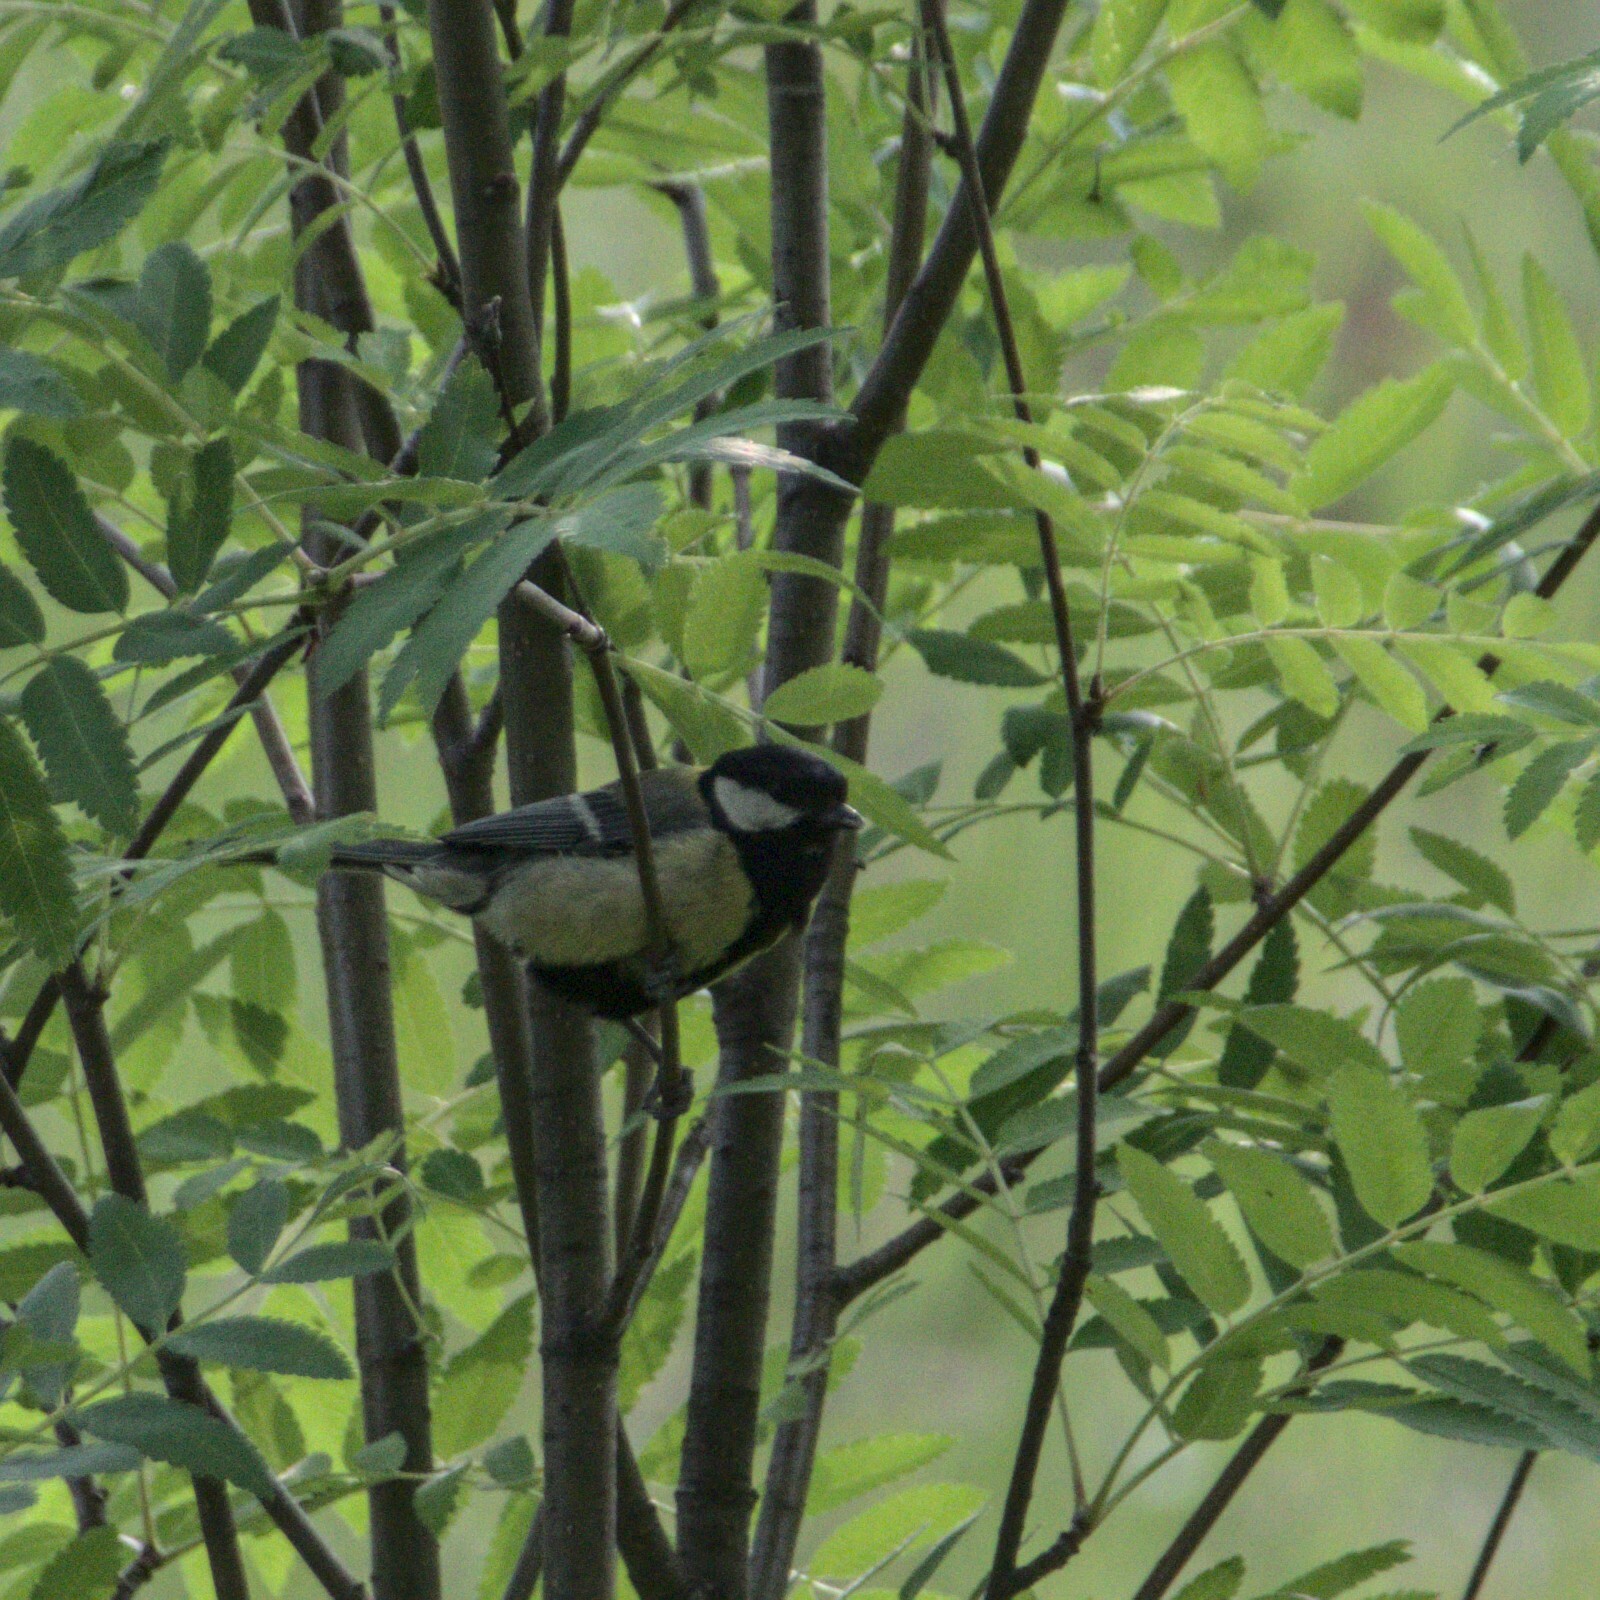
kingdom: Animalia
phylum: Chordata
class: Aves
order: Passeriformes
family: Paridae
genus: Parus
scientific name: Parus major
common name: Great tit
